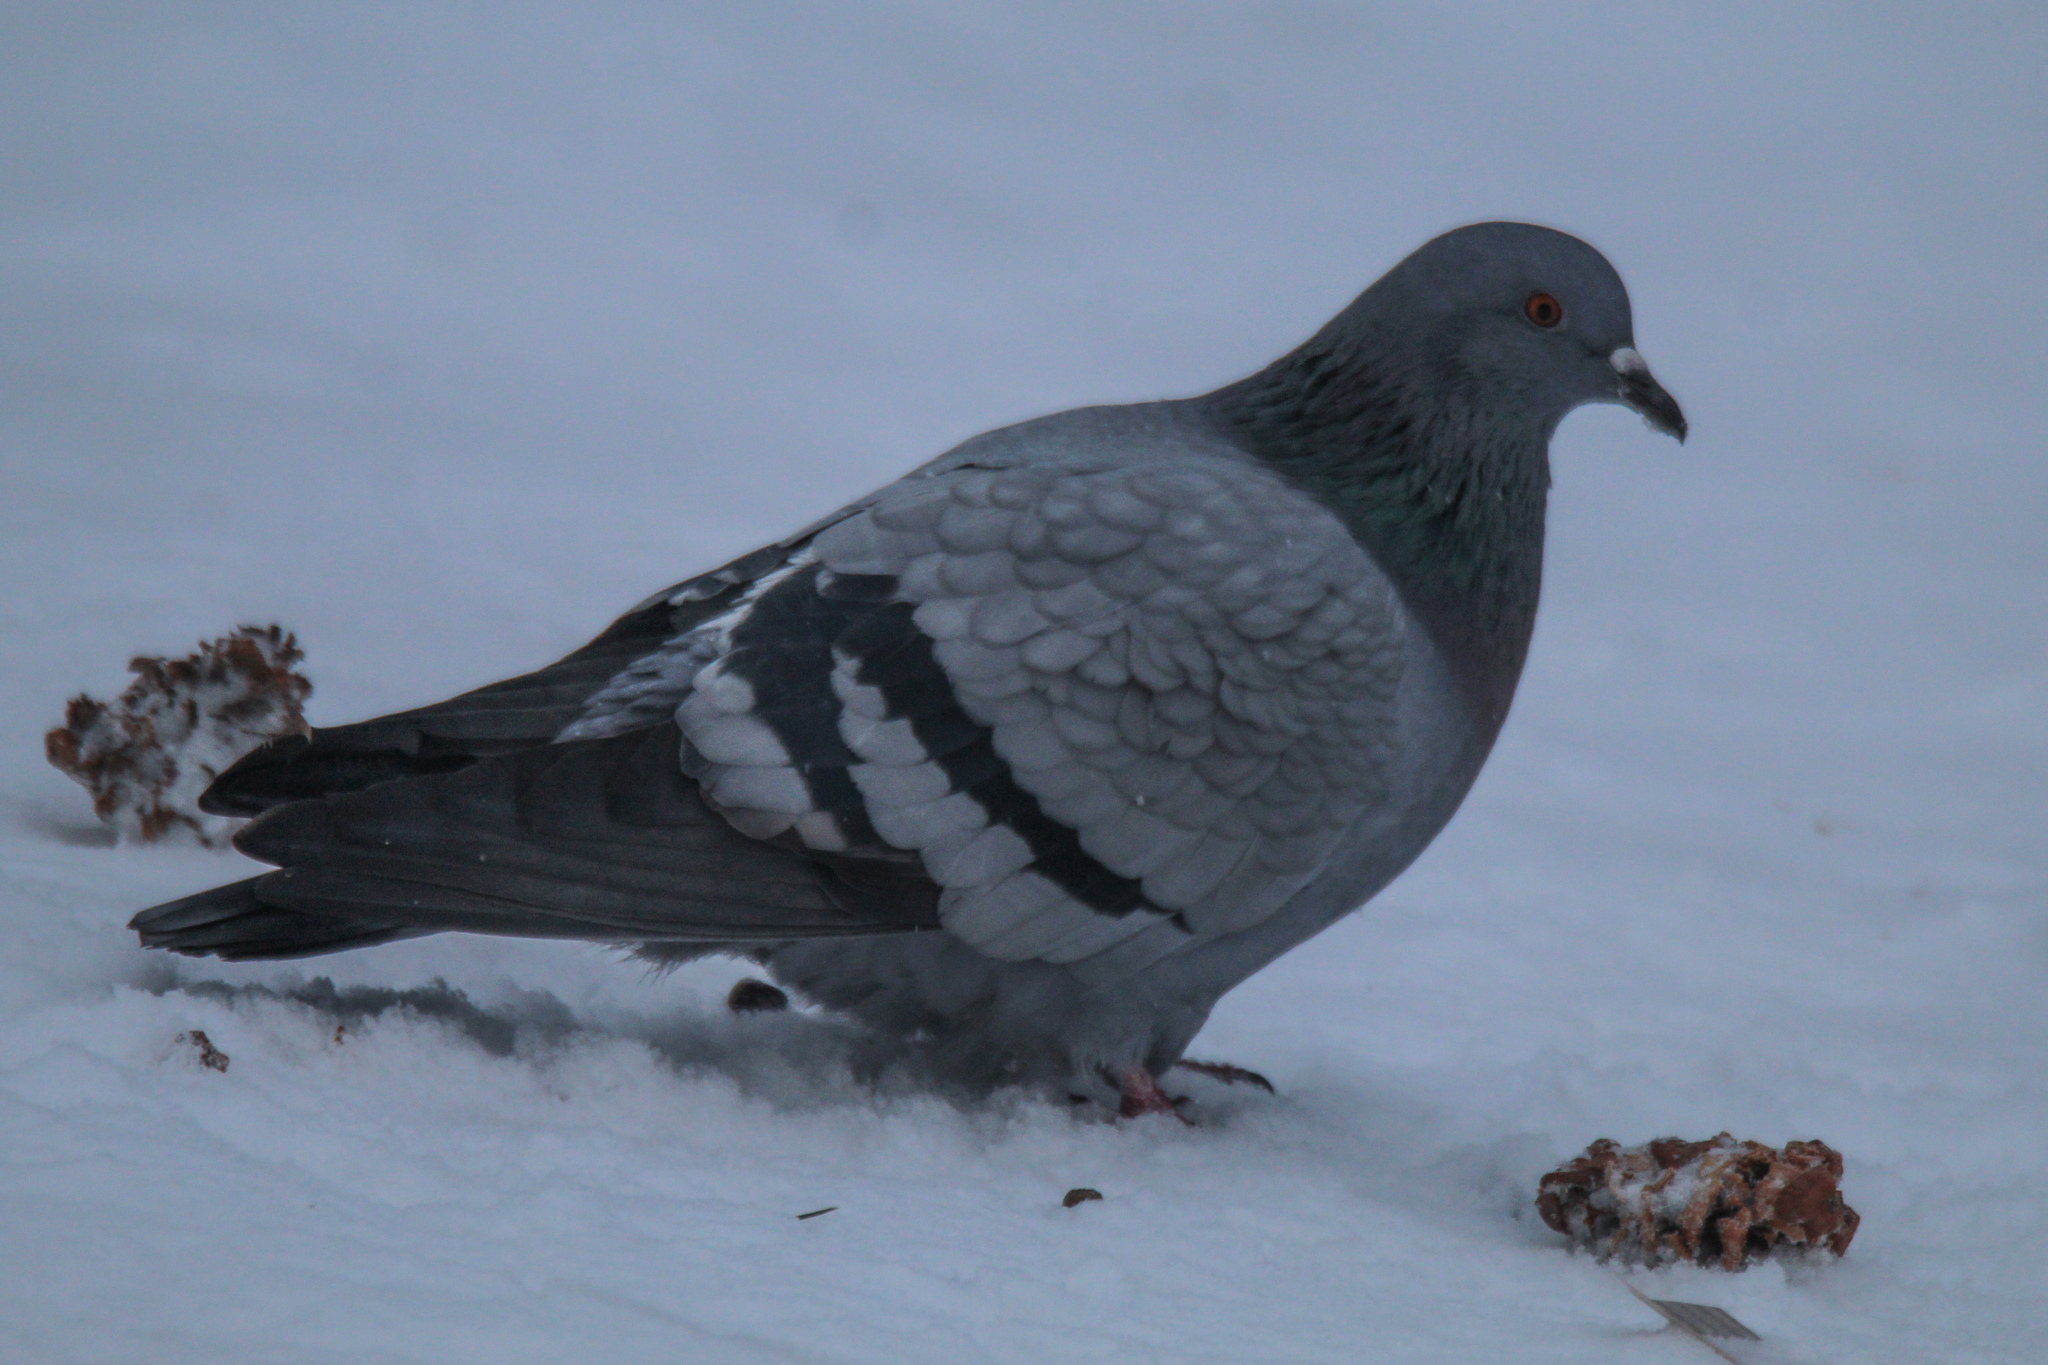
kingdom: Animalia
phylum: Chordata
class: Aves
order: Columbiformes
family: Columbidae
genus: Columba
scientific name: Columba livia
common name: Rock pigeon
